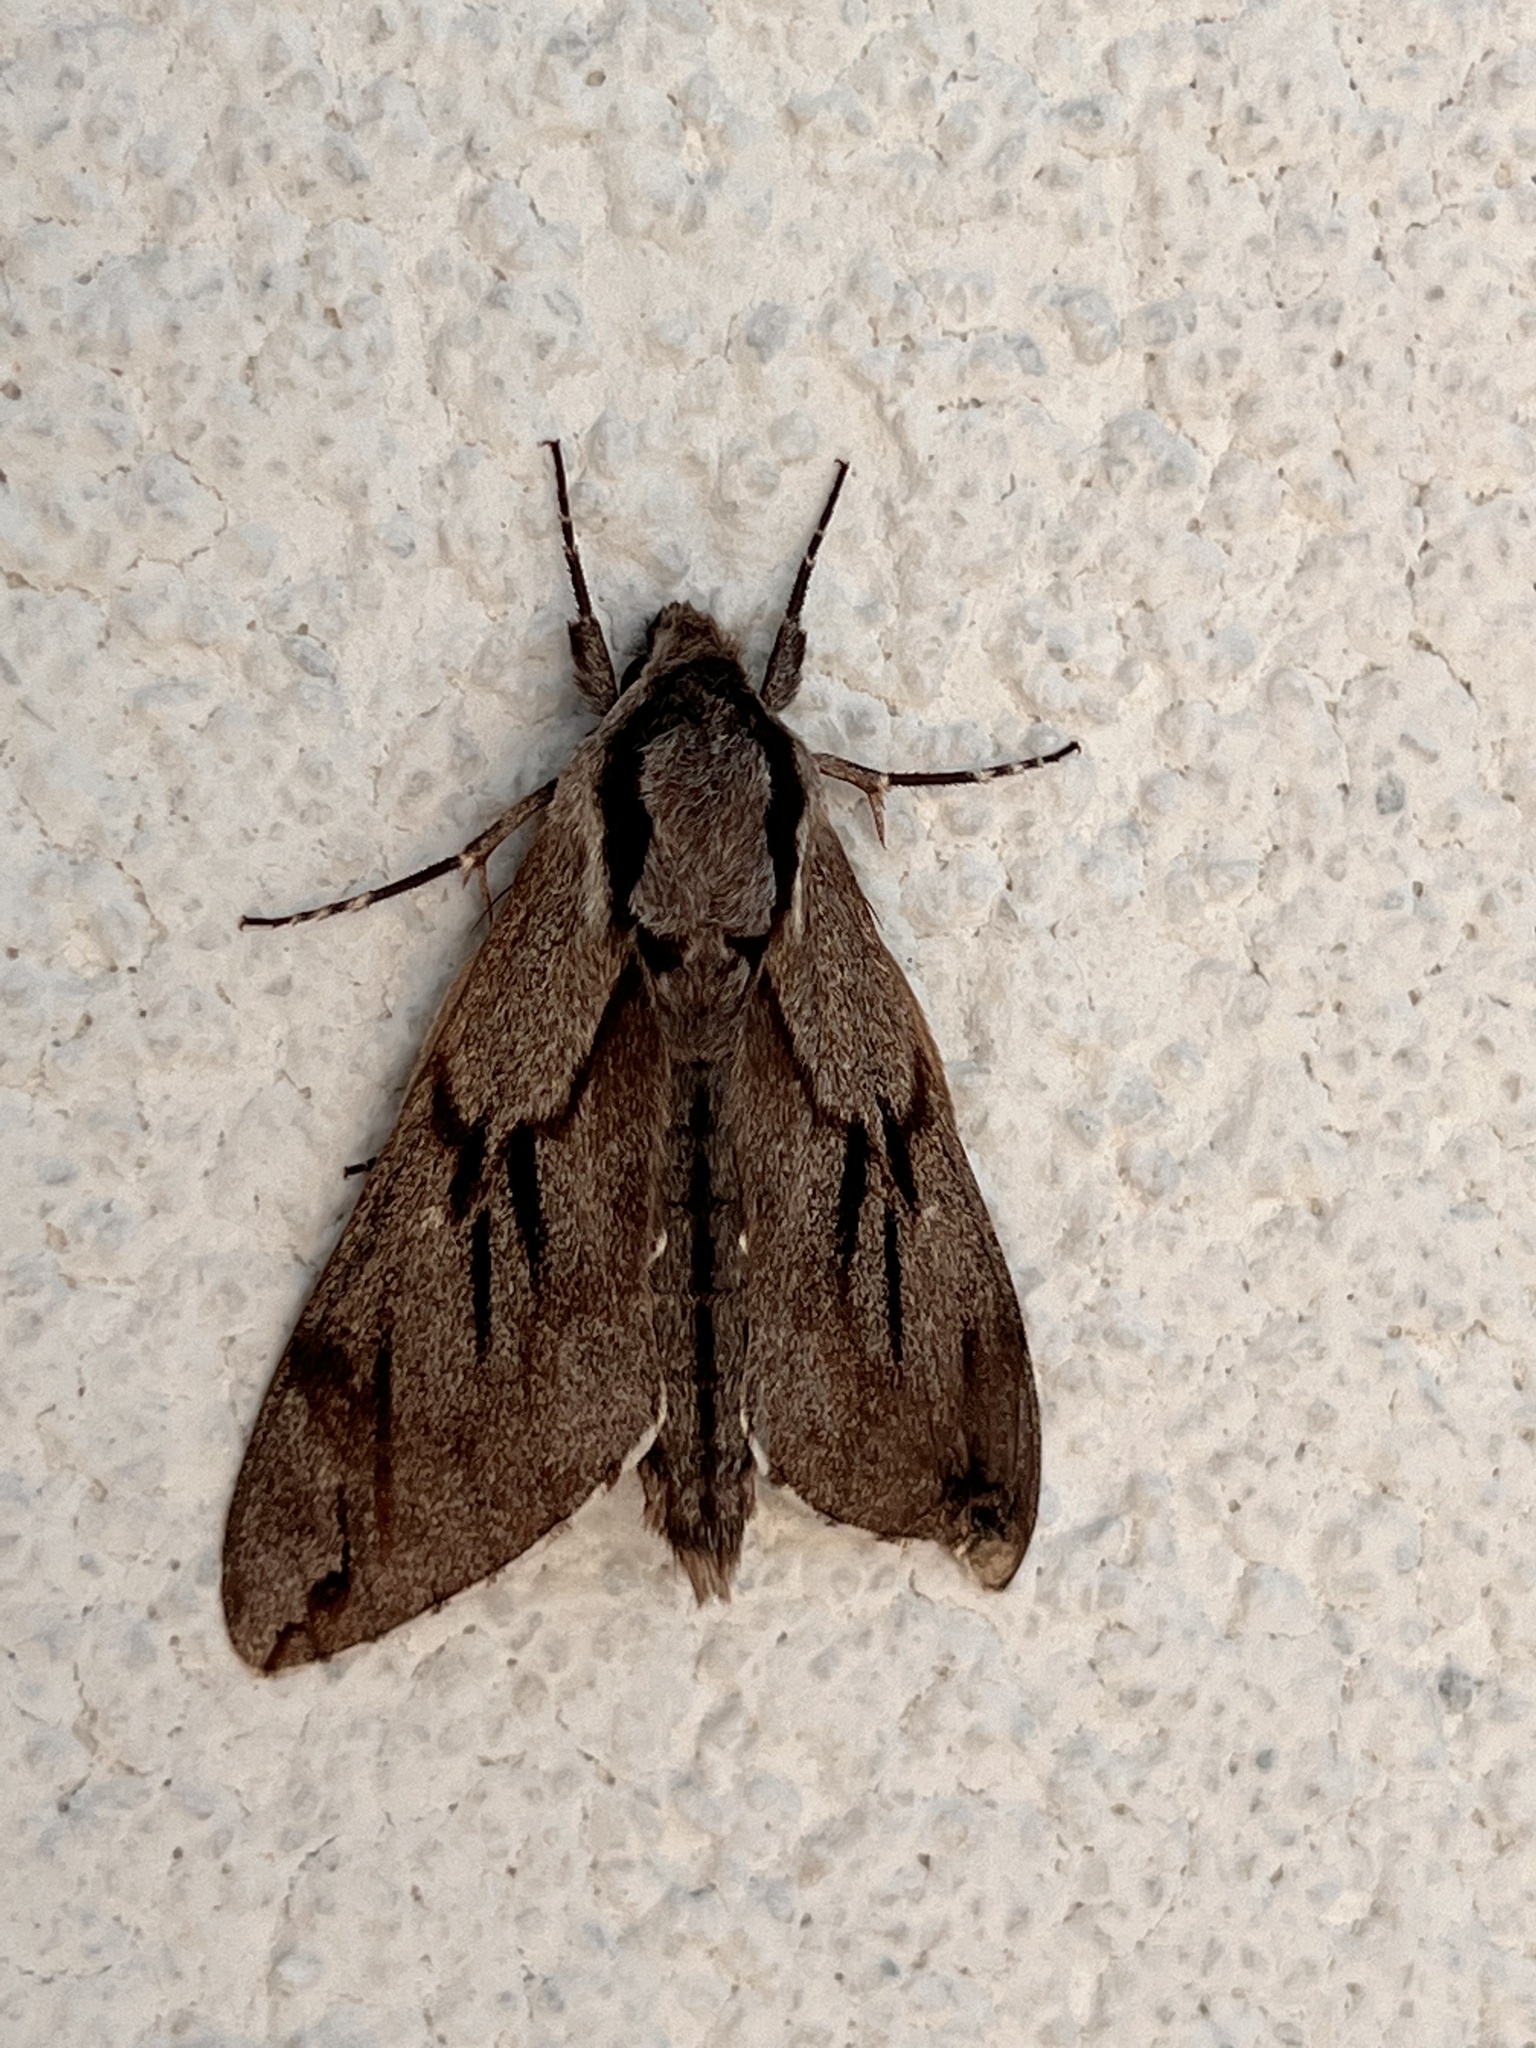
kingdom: Animalia
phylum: Arthropoda
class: Insecta
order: Lepidoptera
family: Sphingidae
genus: Sphinx
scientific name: Sphinx pinastri
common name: Pine hawk-moth
